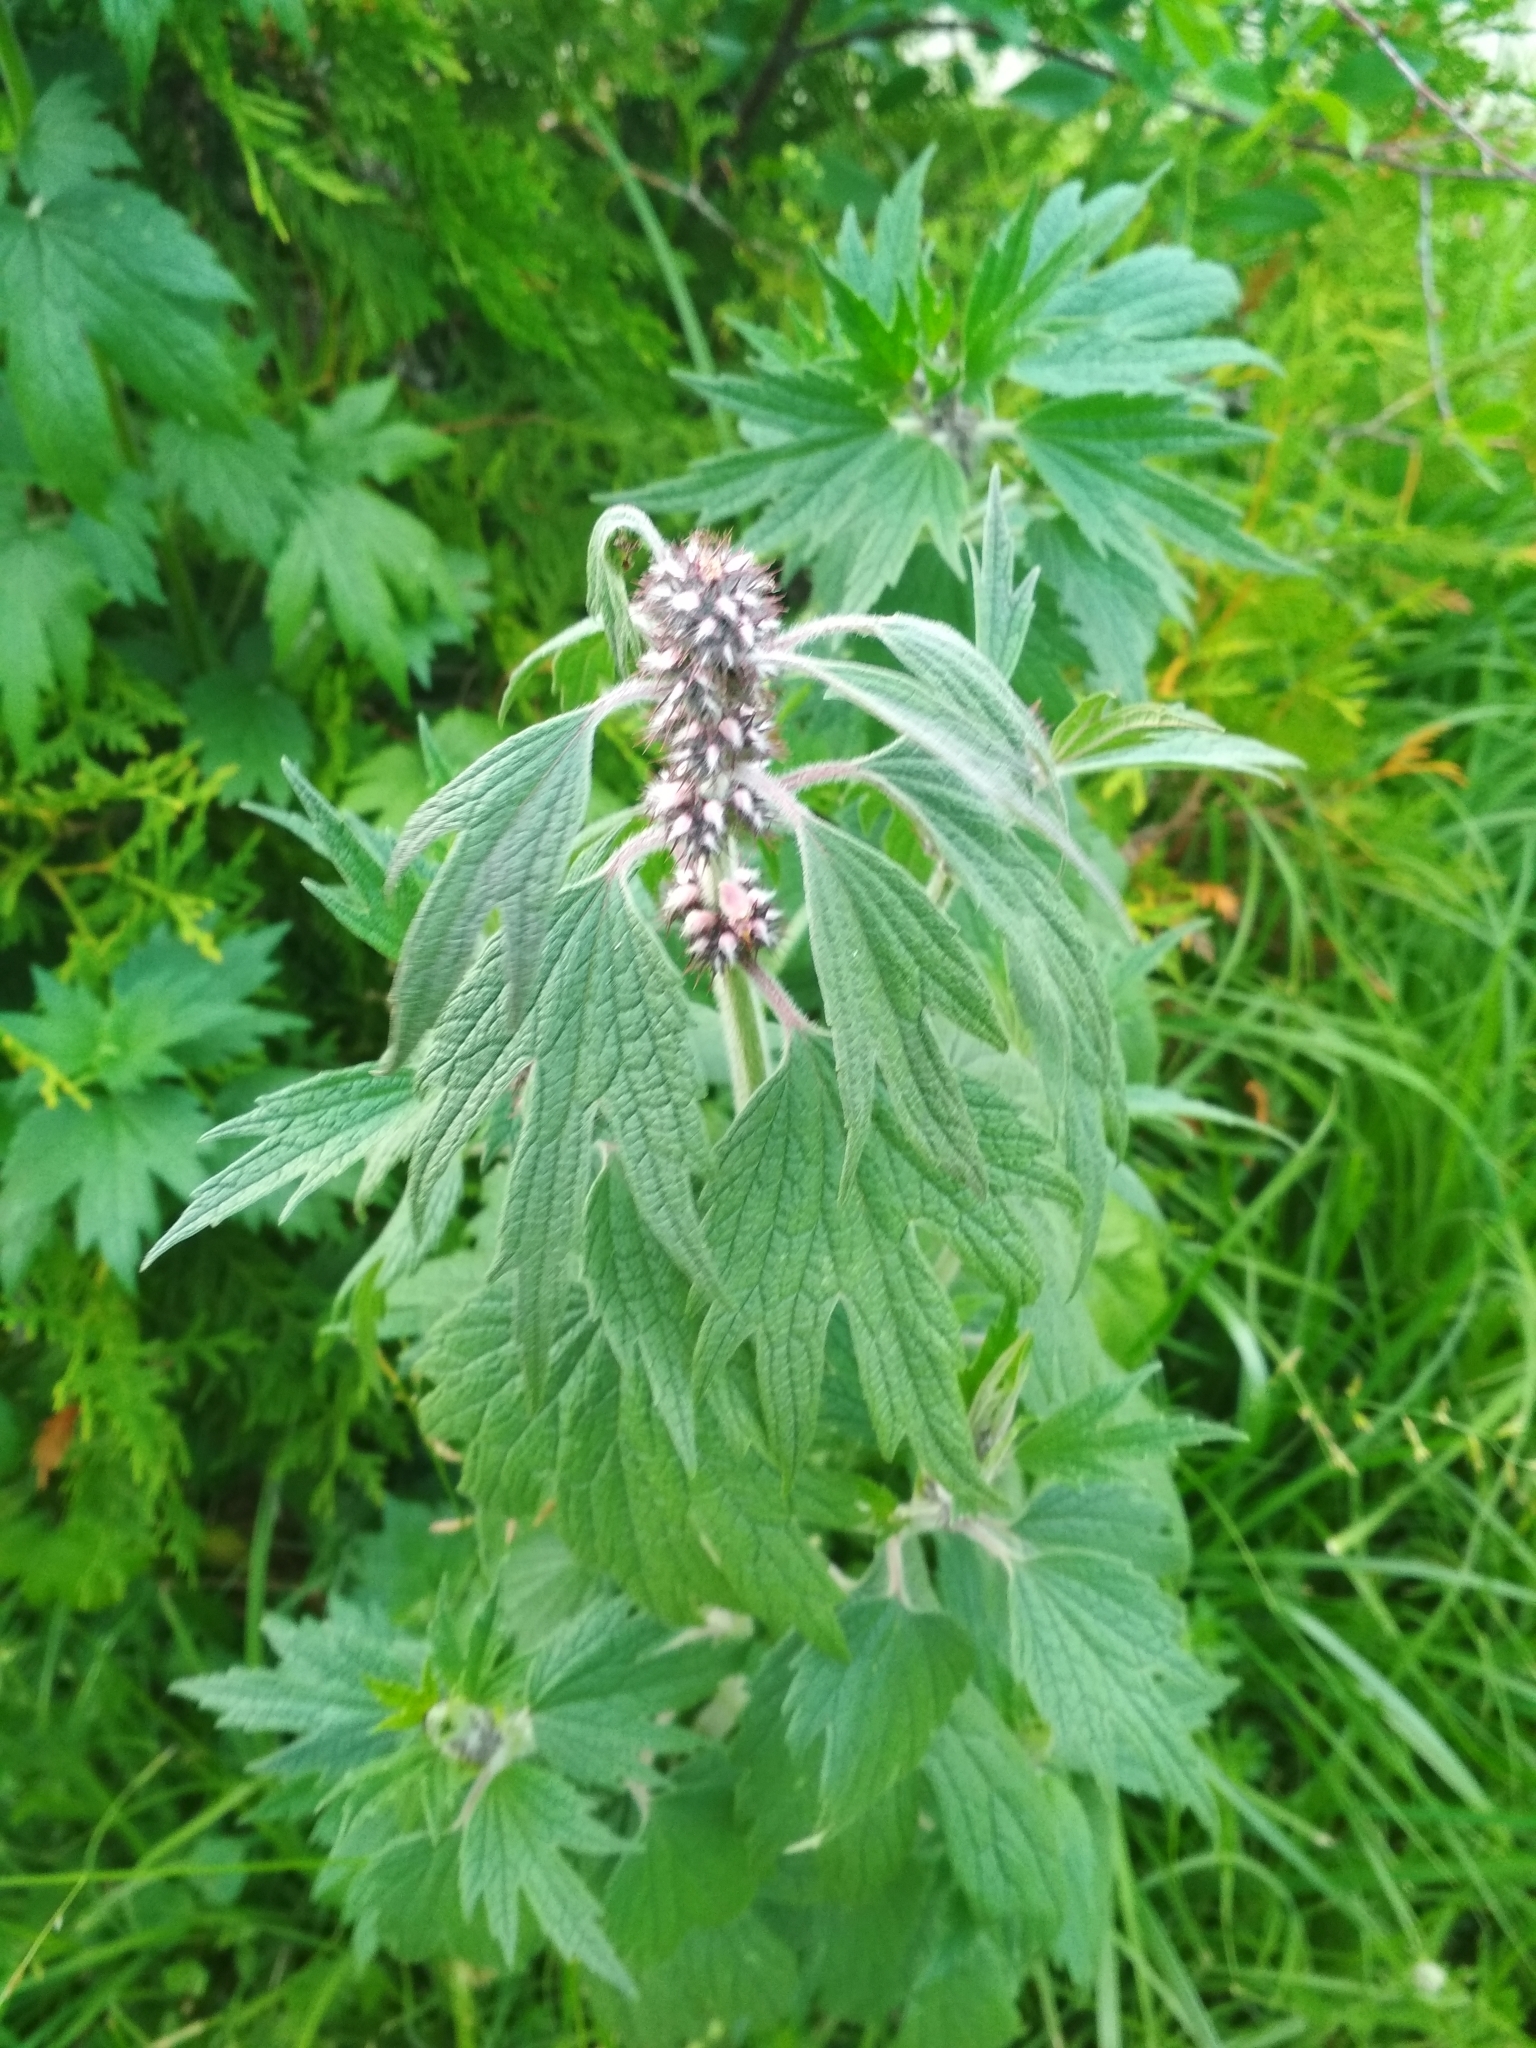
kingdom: Plantae
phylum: Tracheophyta
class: Magnoliopsida
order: Lamiales
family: Lamiaceae
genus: Leonurus
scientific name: Leonurus quinquelobatus
